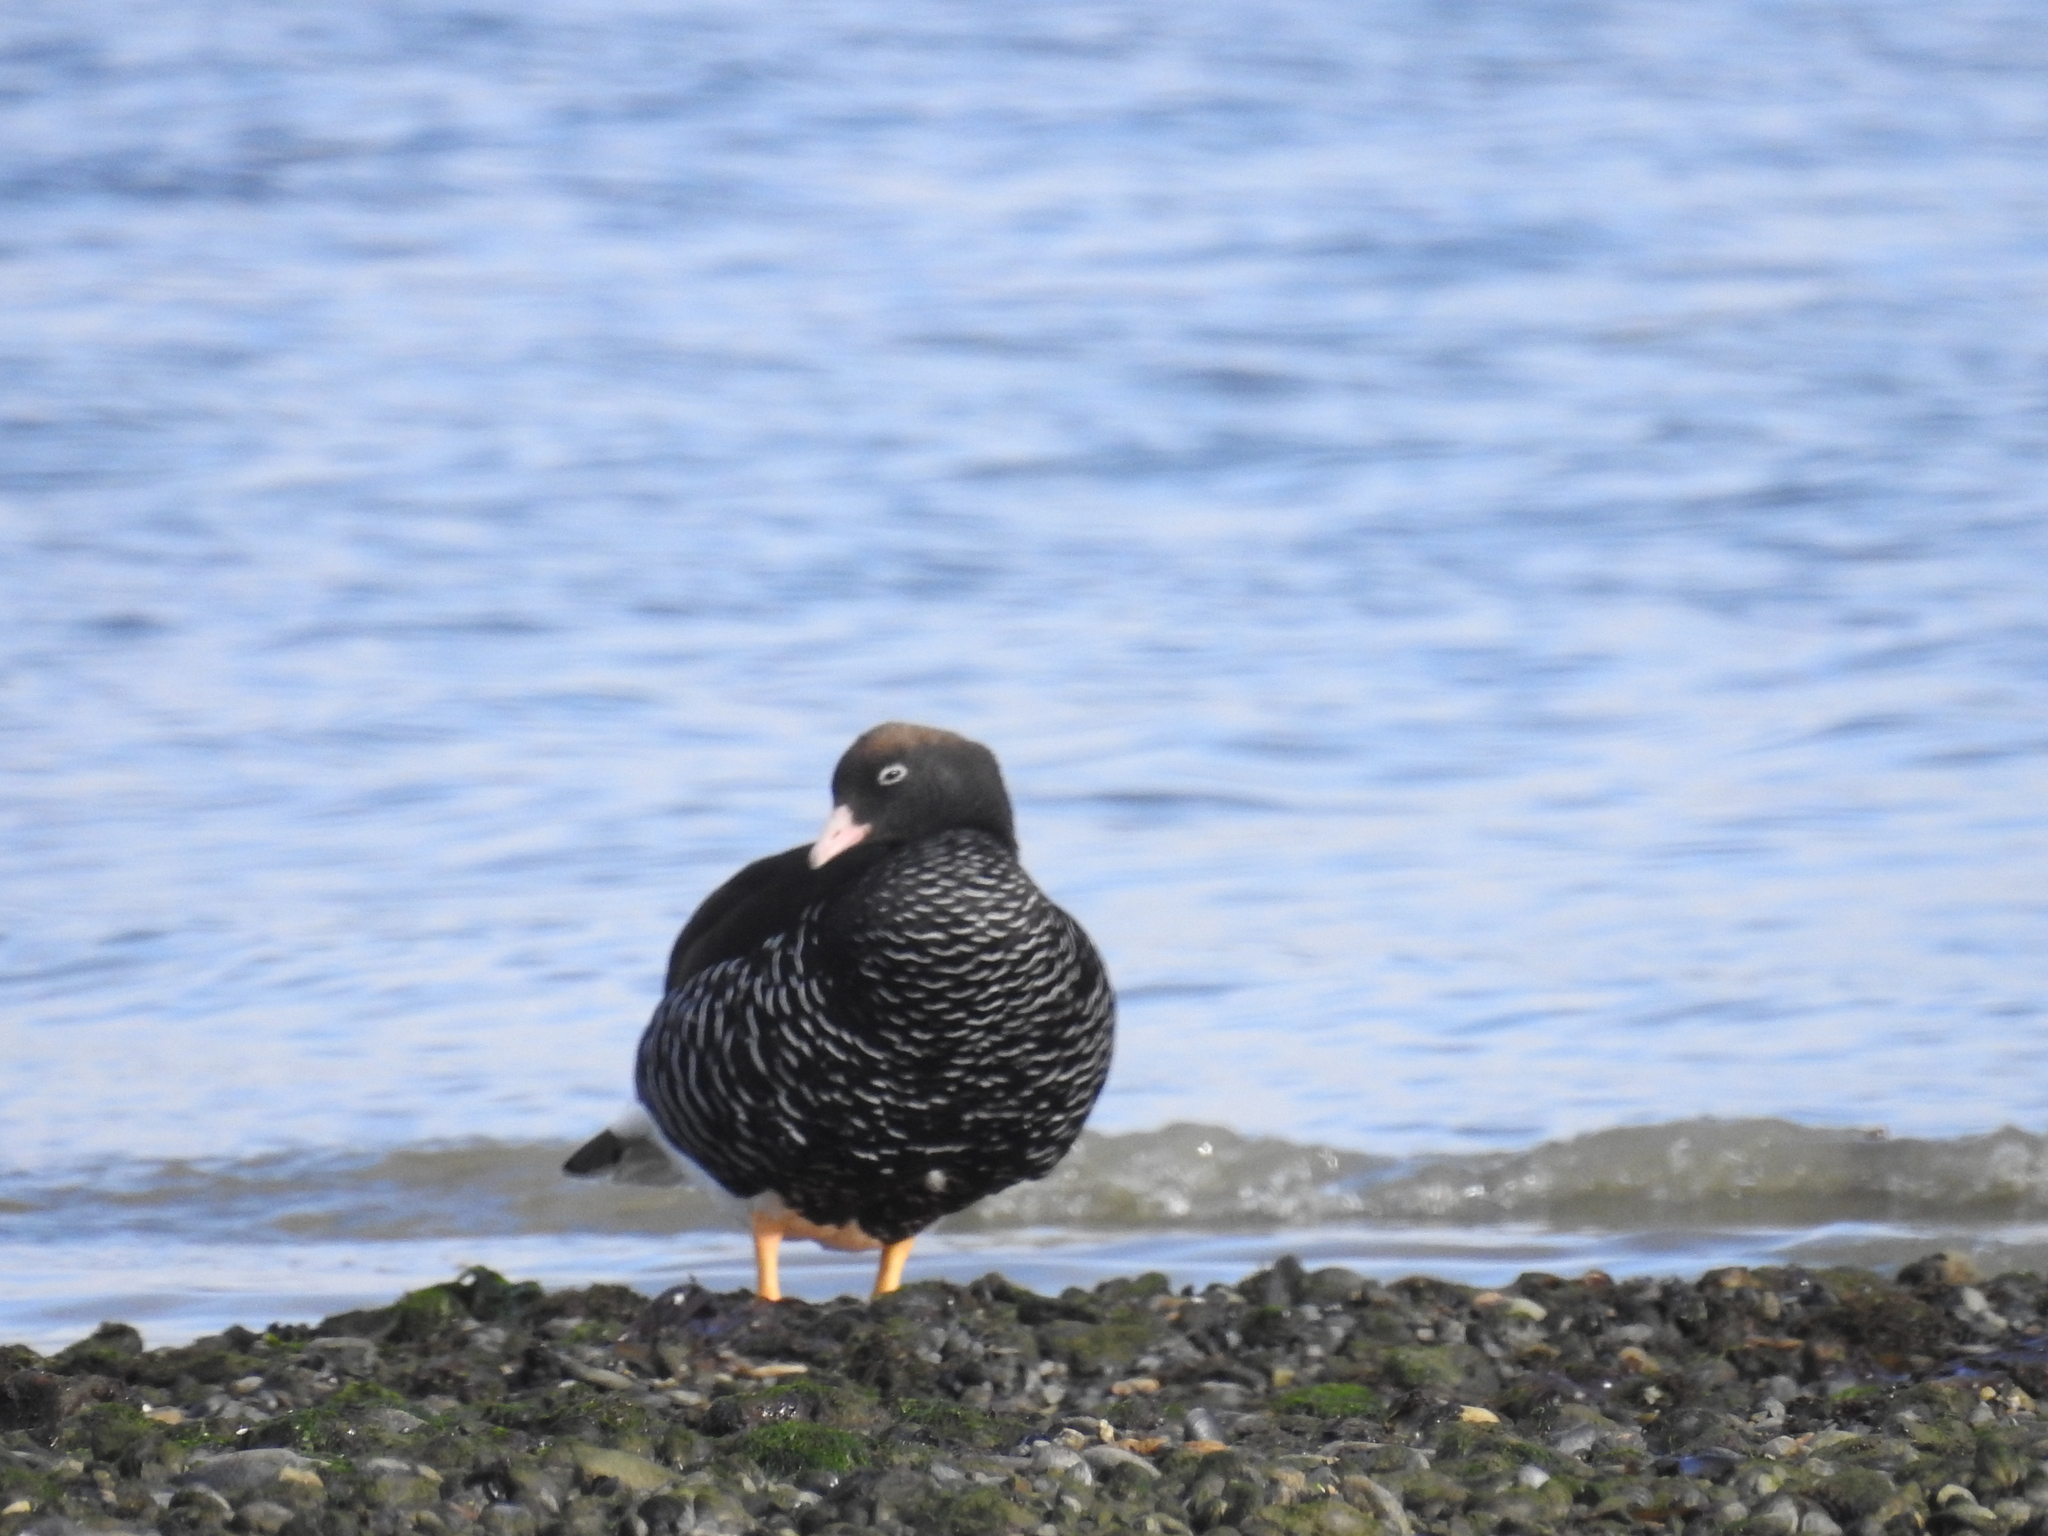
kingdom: Animalia
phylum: Chordata
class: Aves
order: Anseriformes
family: Anatidae
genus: Chloephaga
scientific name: Chloephaga hybrida
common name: Kelp goose
